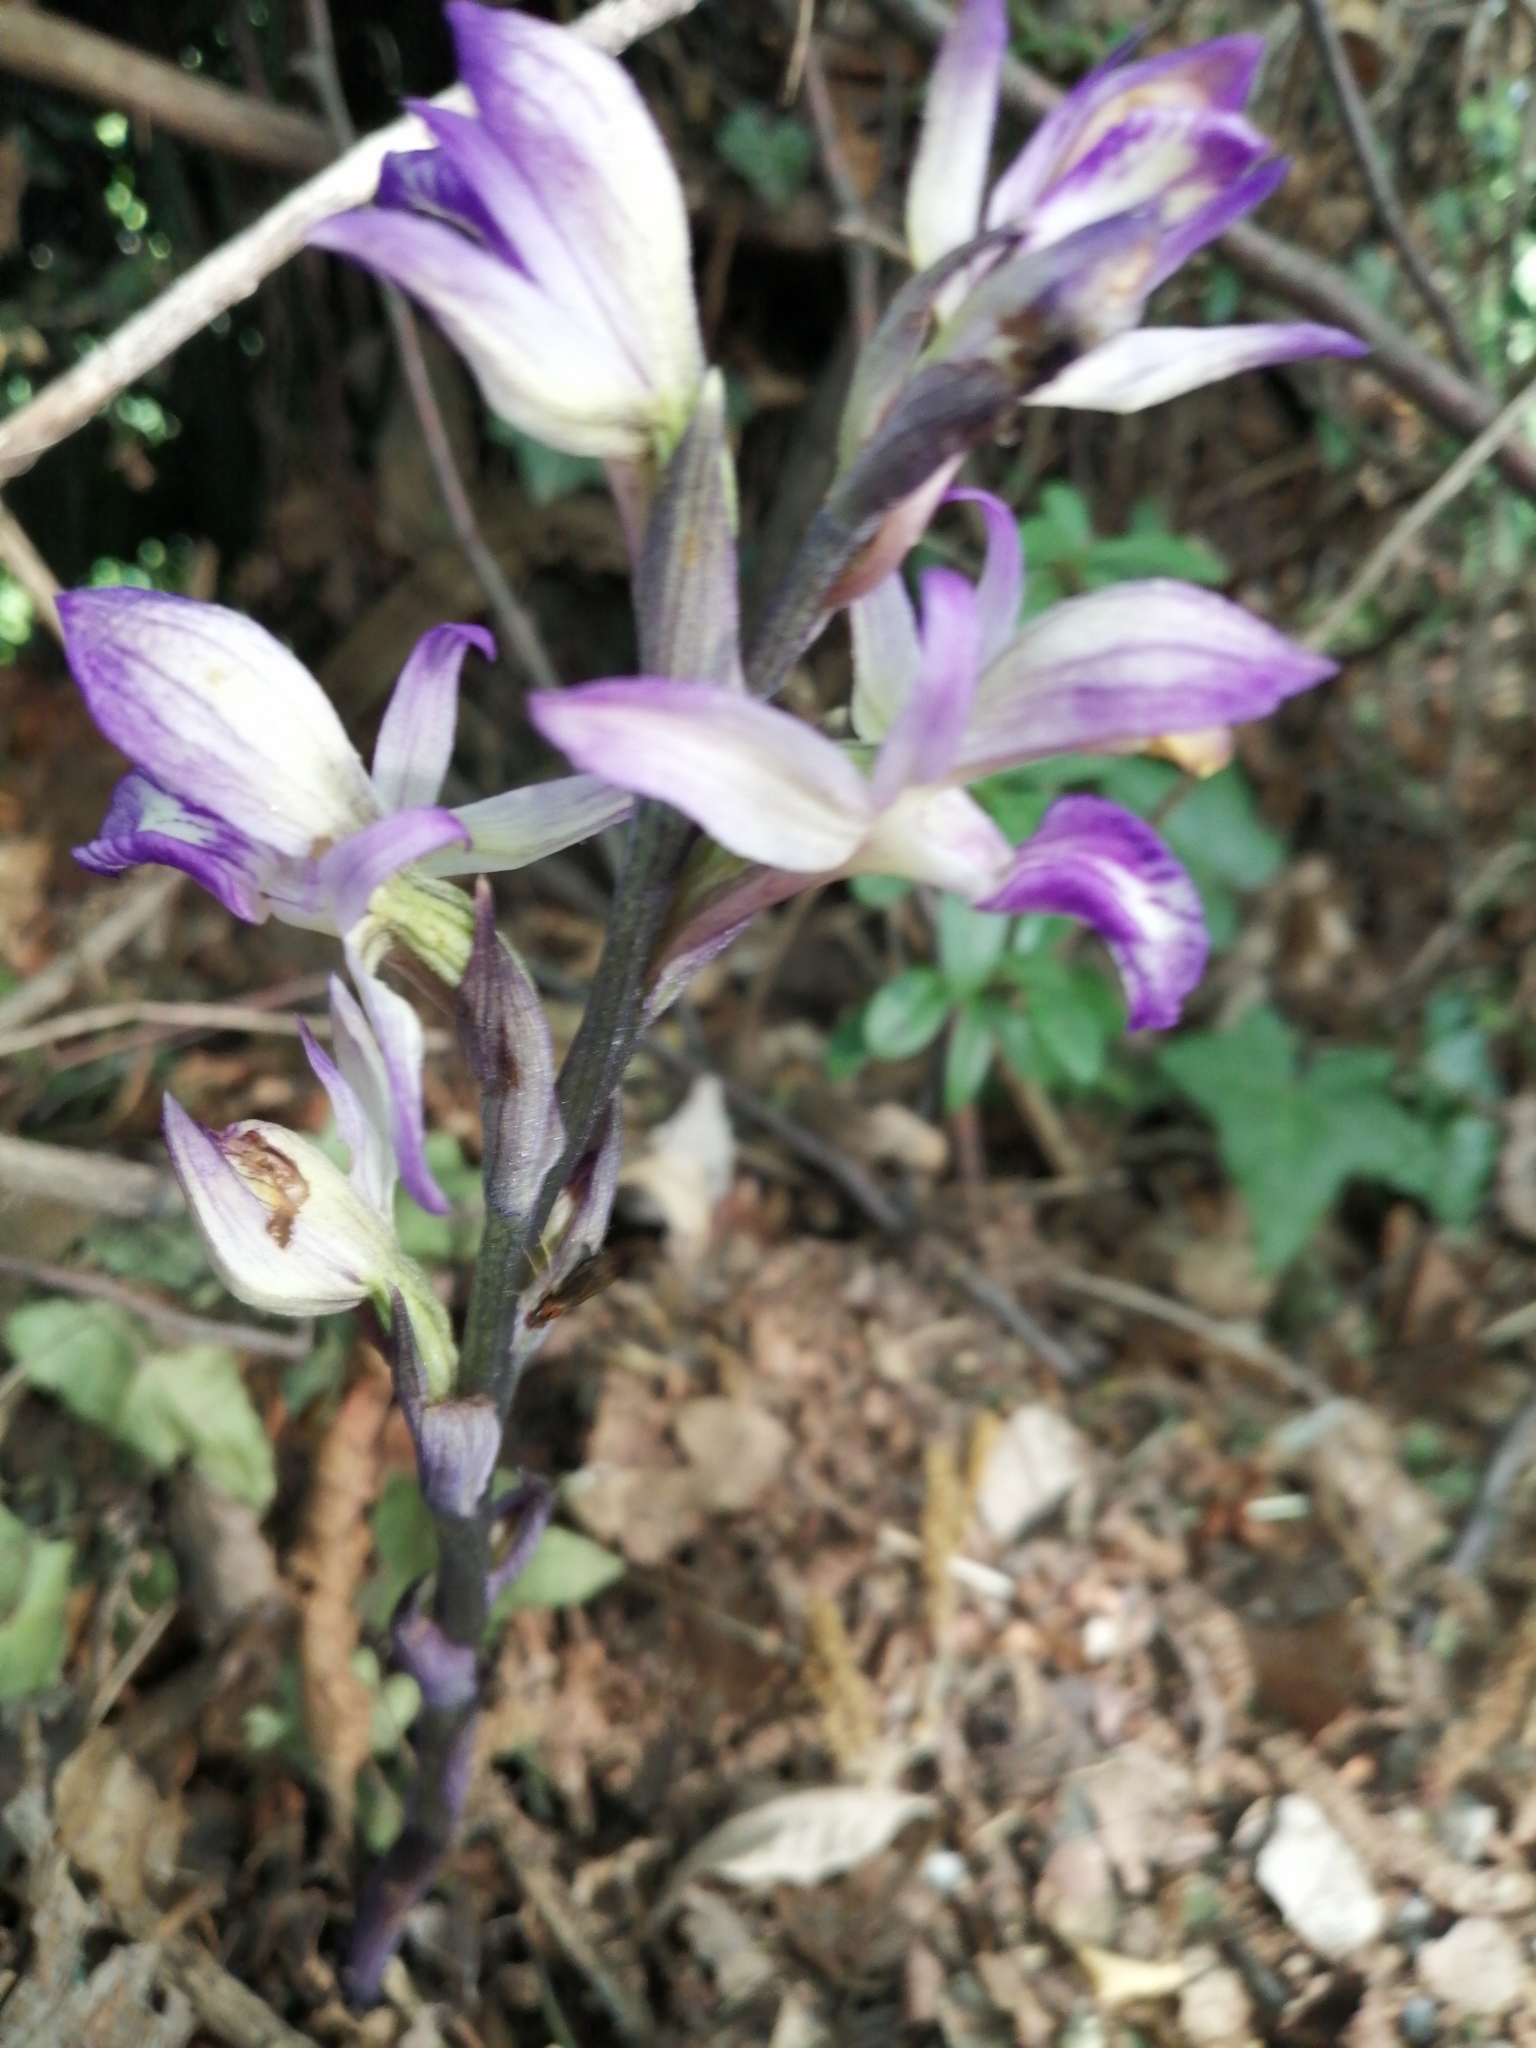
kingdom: Plantae
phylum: Tracheophyta
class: Liliopsida
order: Asparagales
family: Orchidaceae
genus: Limodorum
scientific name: Limodorum abortivum
